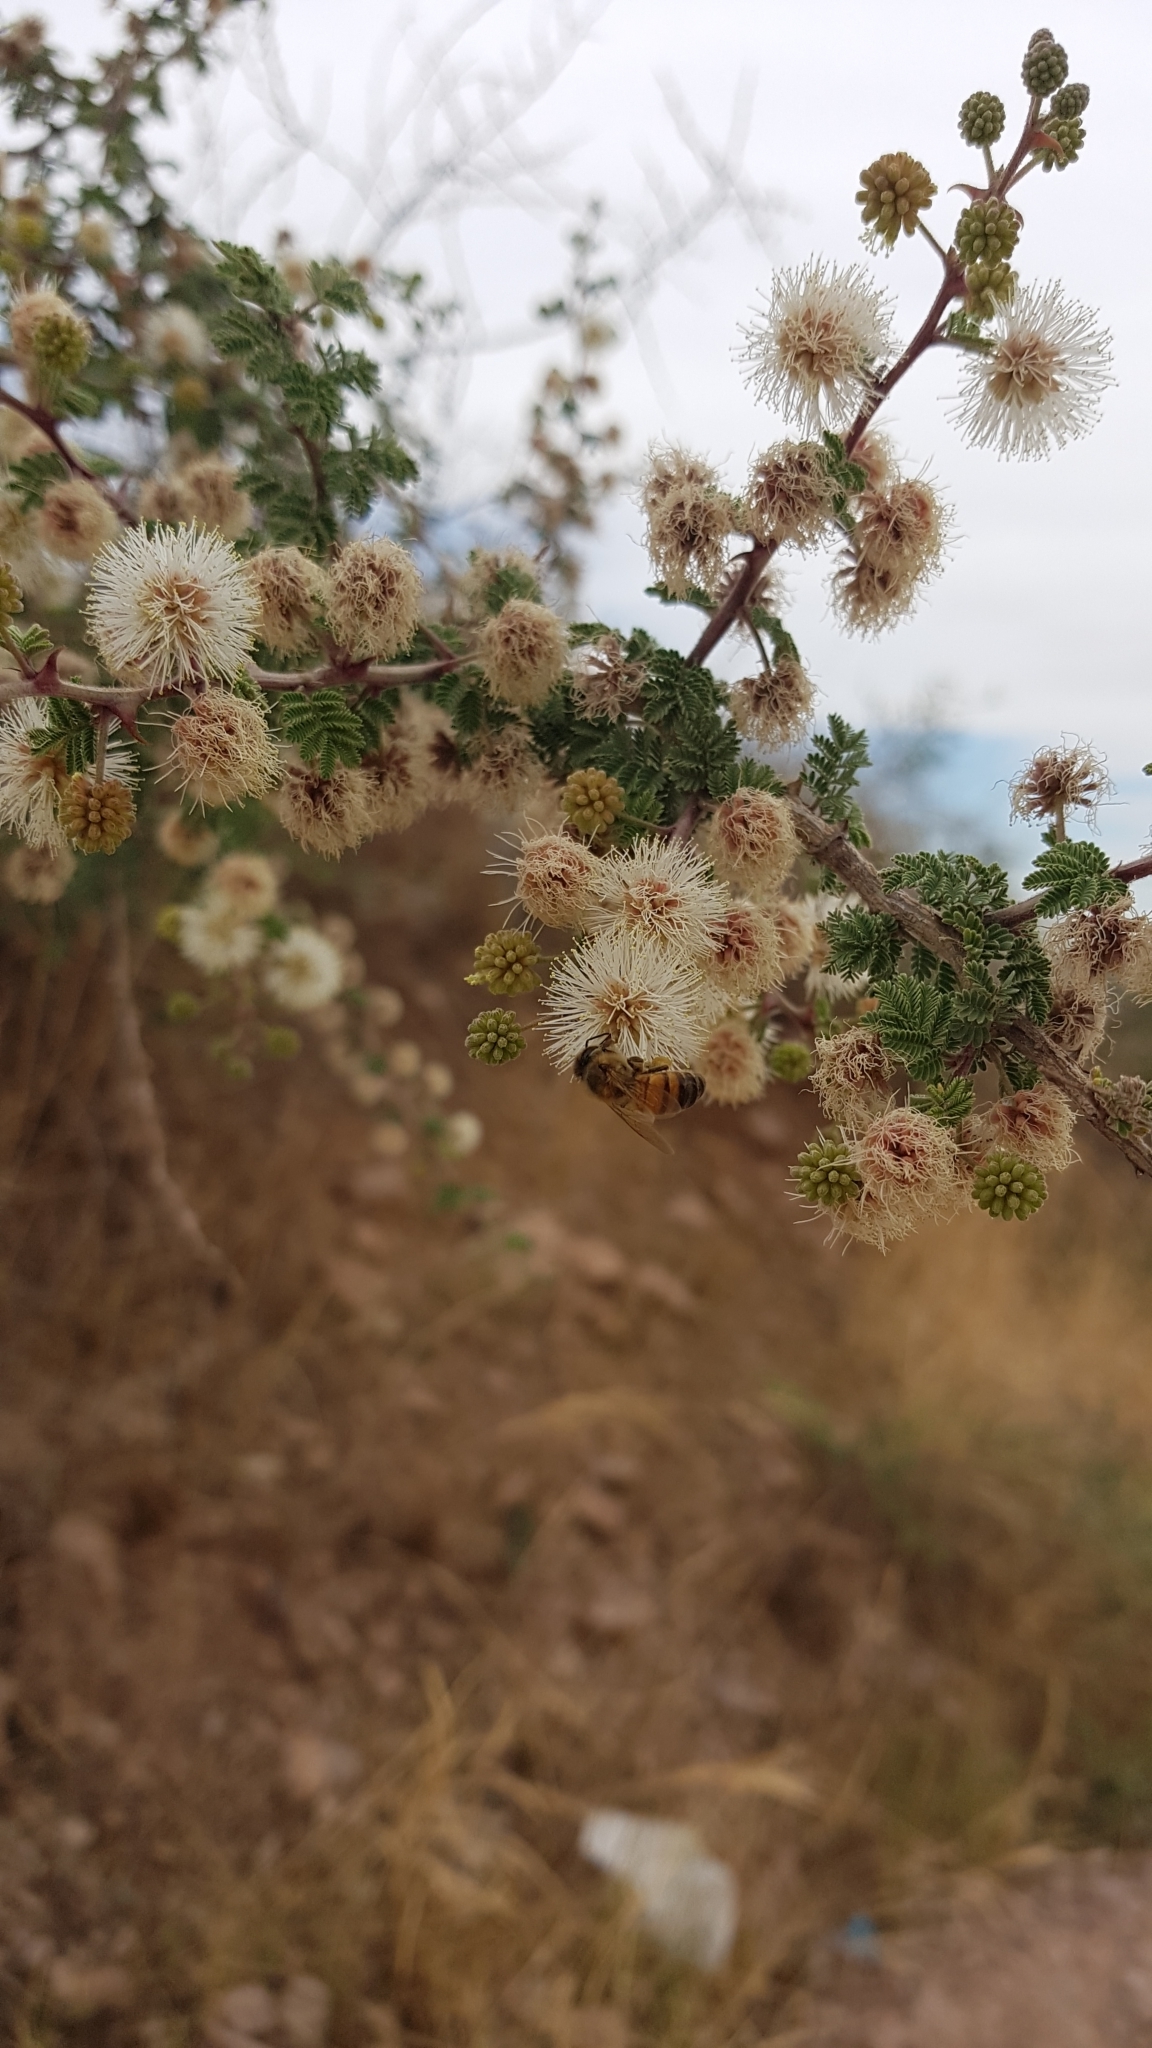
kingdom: Animalia
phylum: Arthropoda
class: Insecta
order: Hymenoptera
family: Apidae
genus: Apis
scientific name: Apis mellifera
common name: Honey bee
